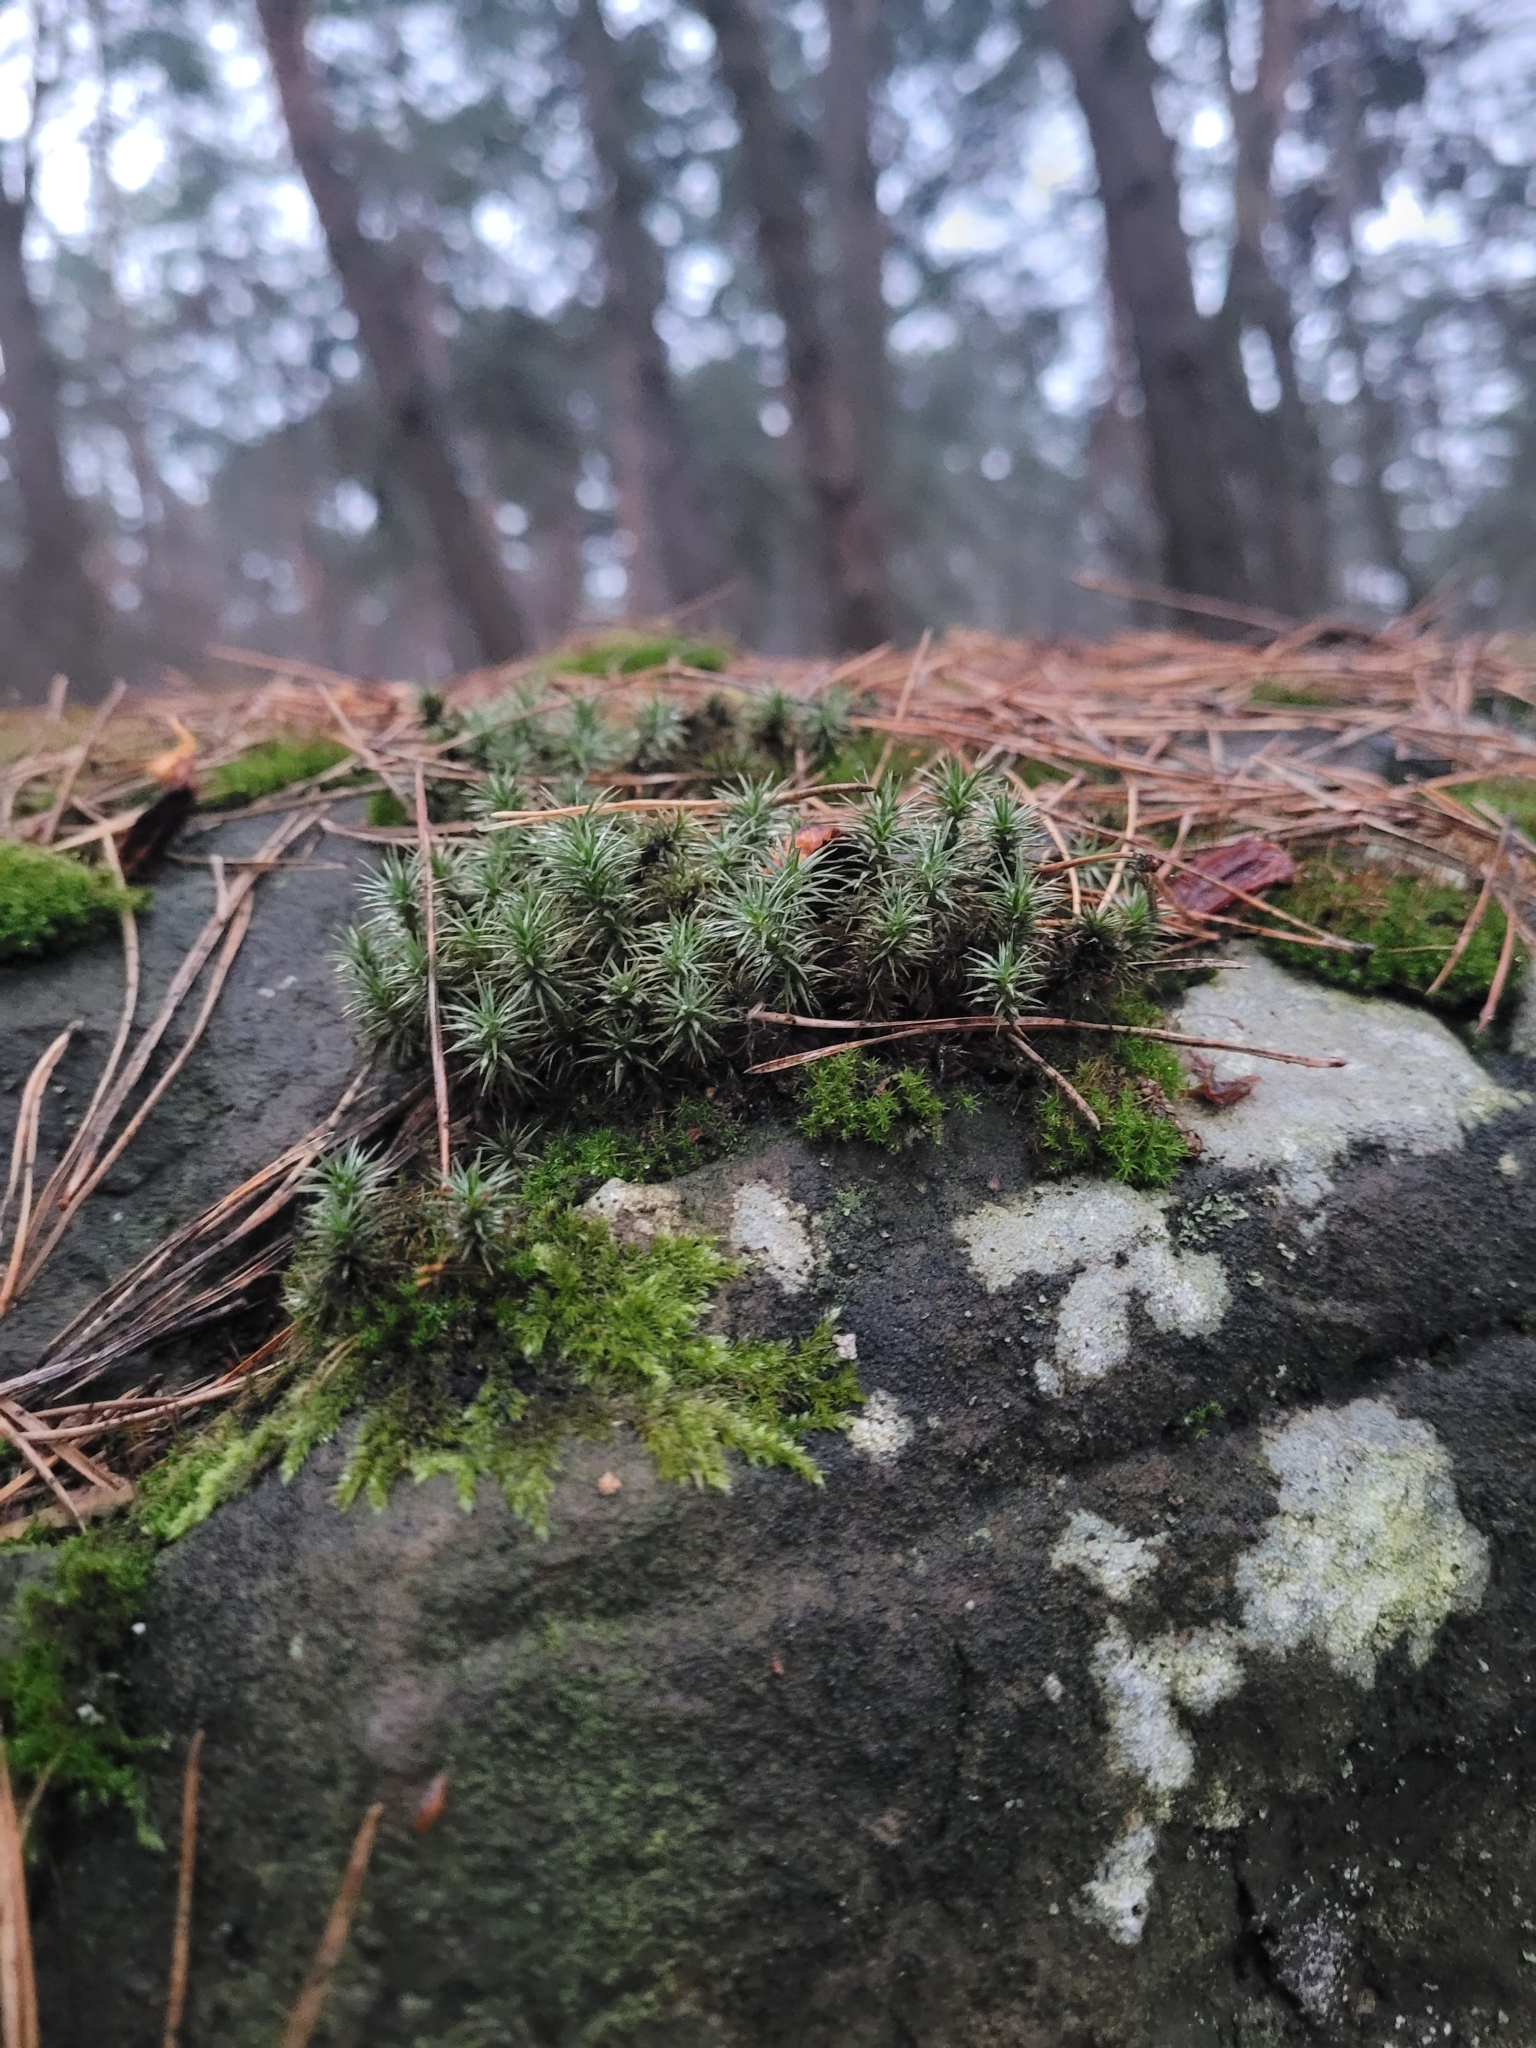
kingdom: Plantae
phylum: Bryophyta
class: Polytrichopsida
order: Polytrichales
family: Polytrichaceae
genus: Polytrichum
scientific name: Polytrichum juniperinum
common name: Juniper haircap moss
